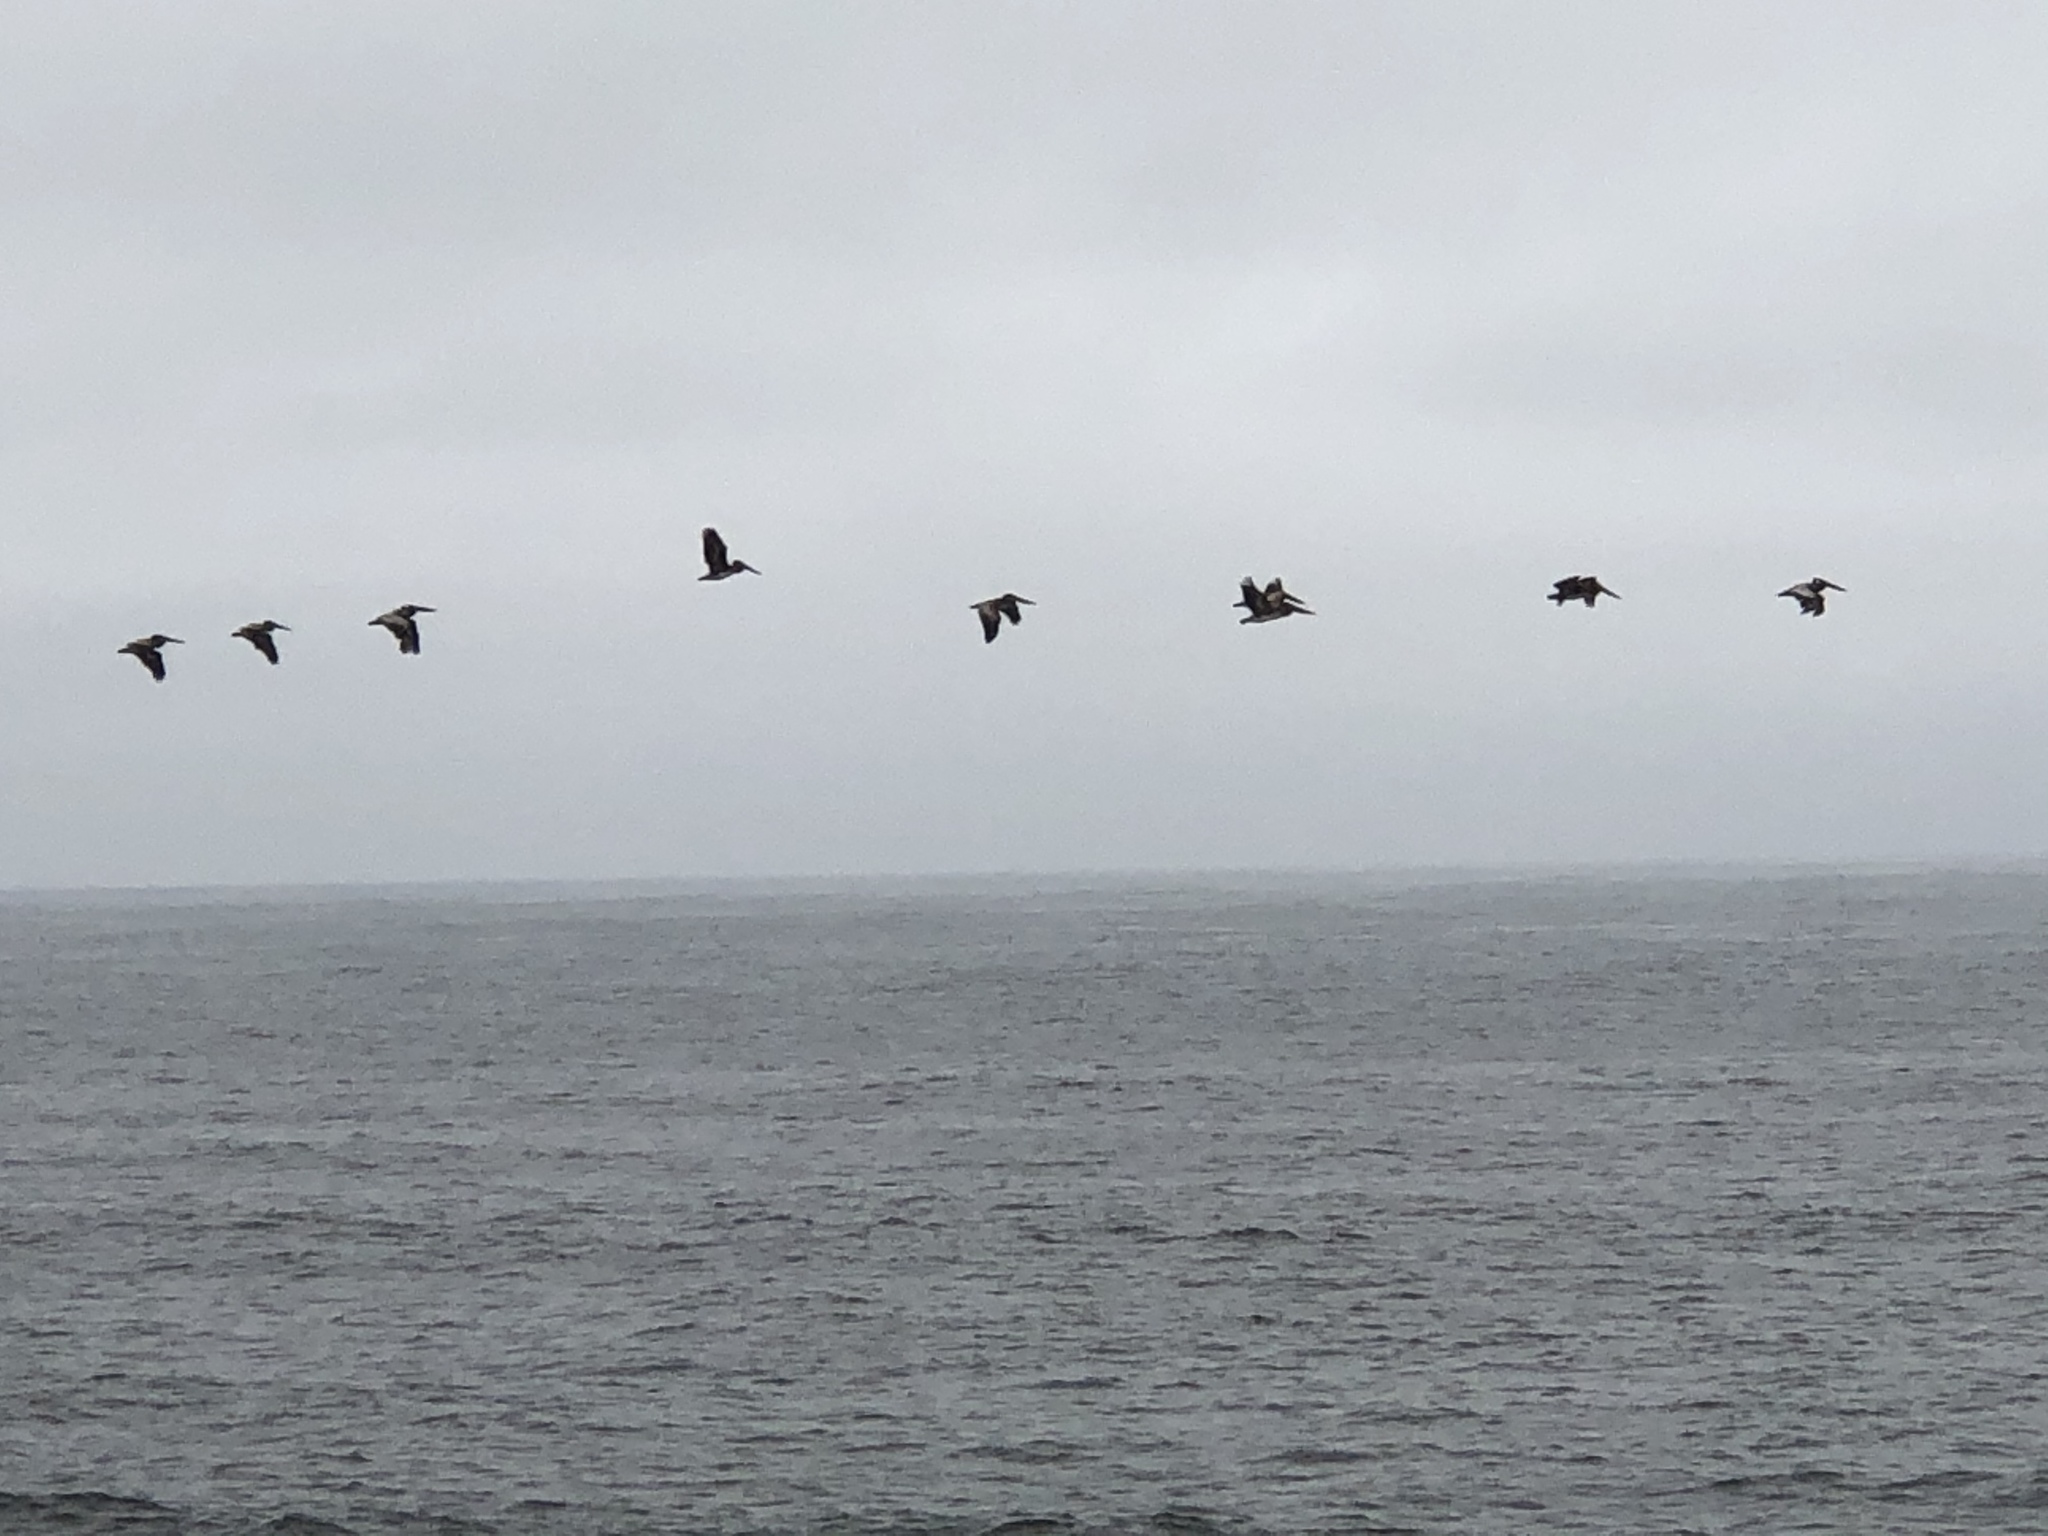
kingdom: Animalia
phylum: Chordata
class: Aves
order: Pelecaniformes
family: Pelecanidae
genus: Pelecanus
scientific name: Pelecanus occidentalis
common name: Brown pelican
